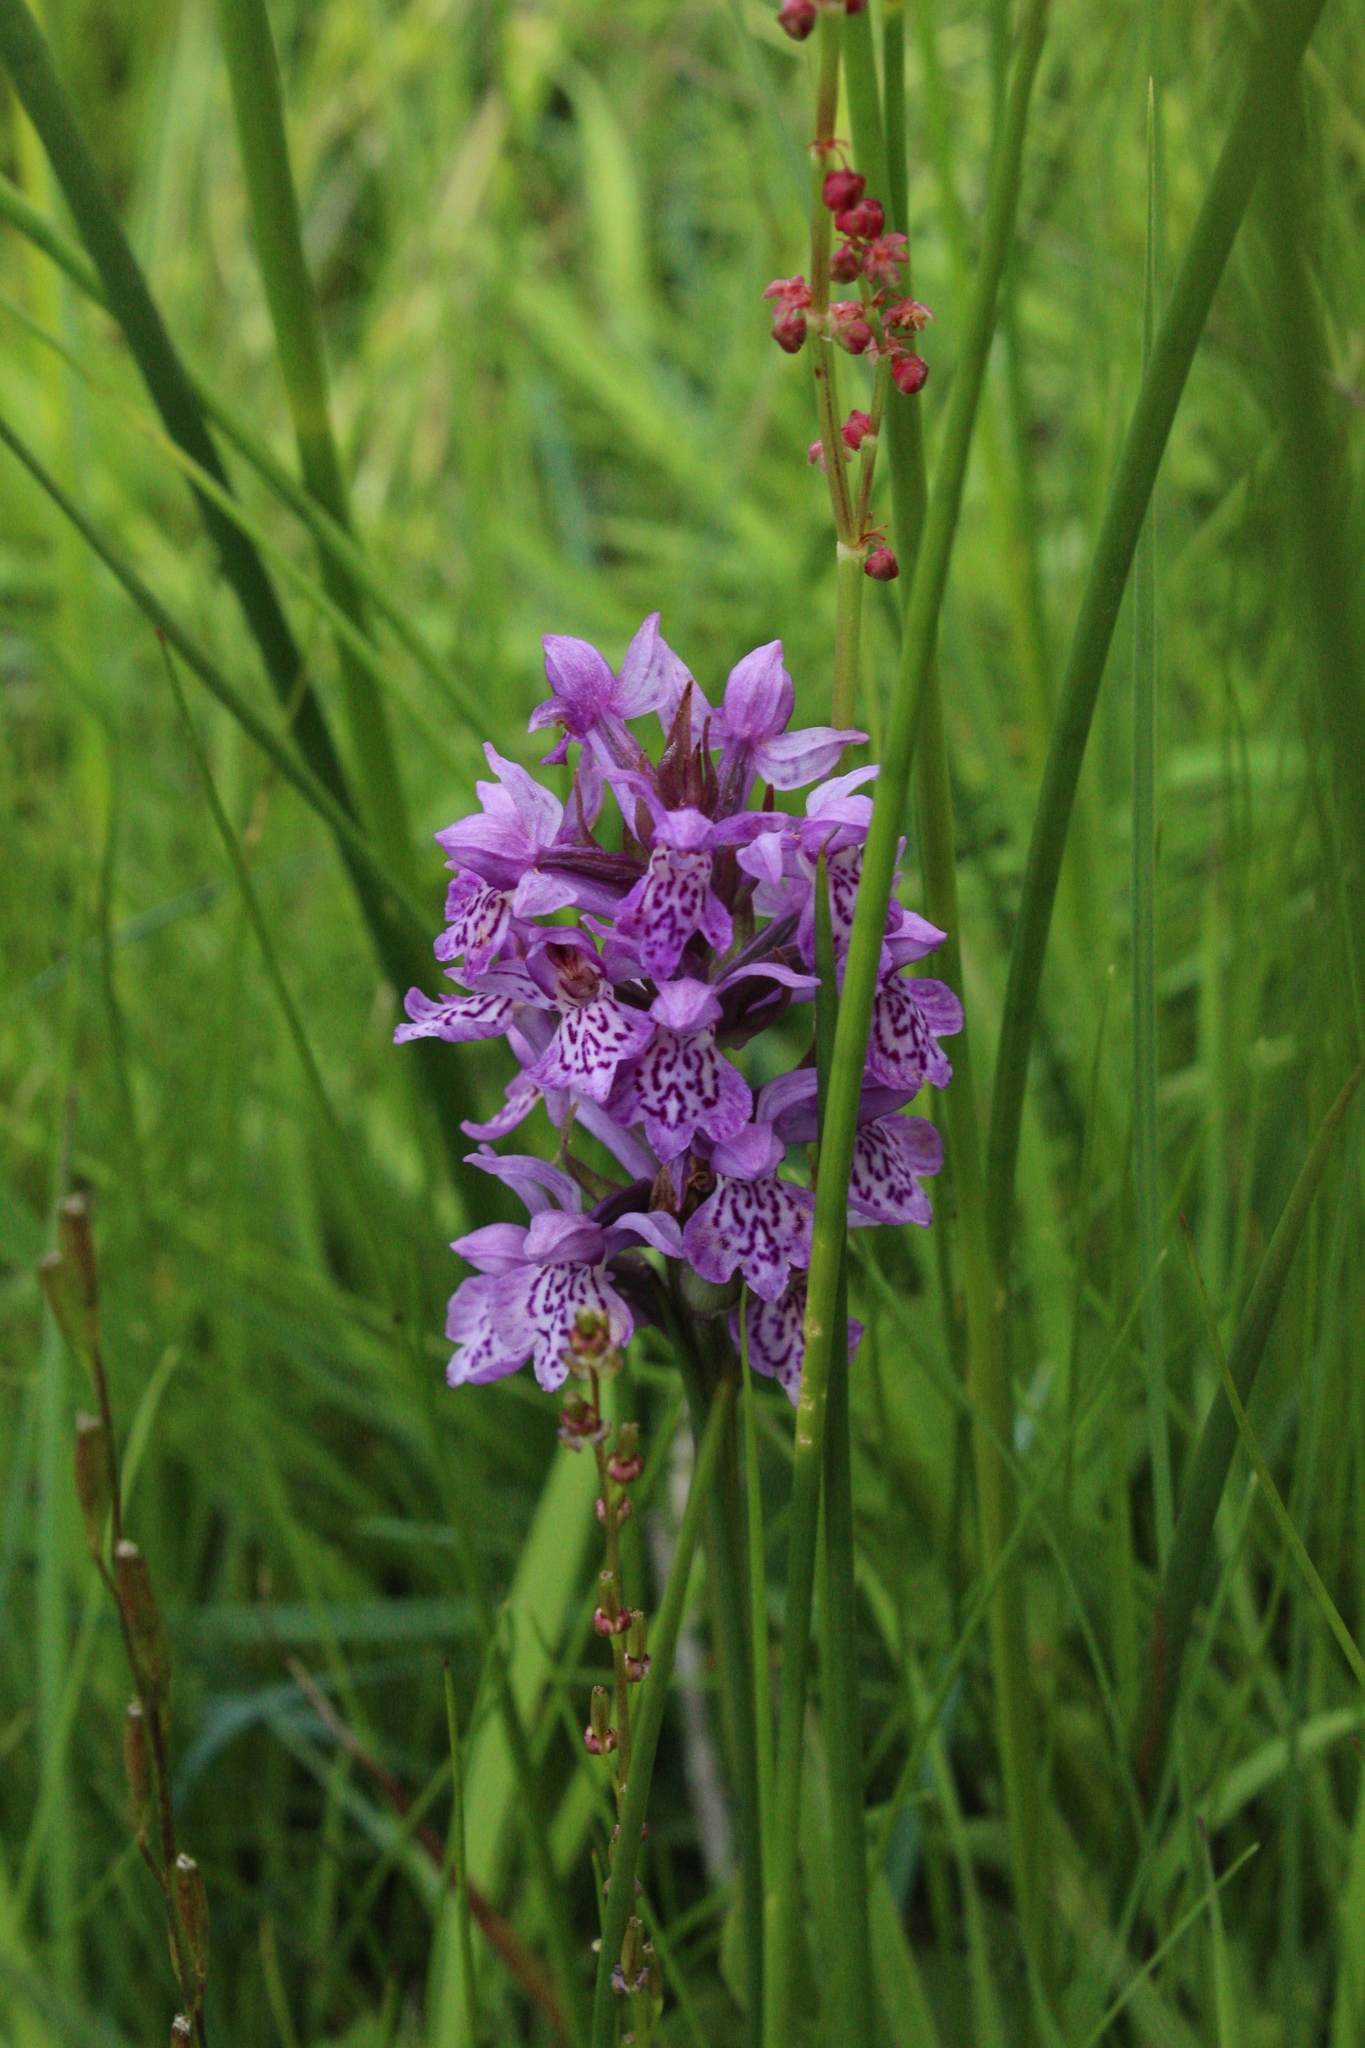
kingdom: Plantae
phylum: Tracheophyta
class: Liliopsida
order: Asparagales
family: Orchidaceae
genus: Dactylorhiza
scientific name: Dactylorhiza maculata
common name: Heath spotted-orchid
